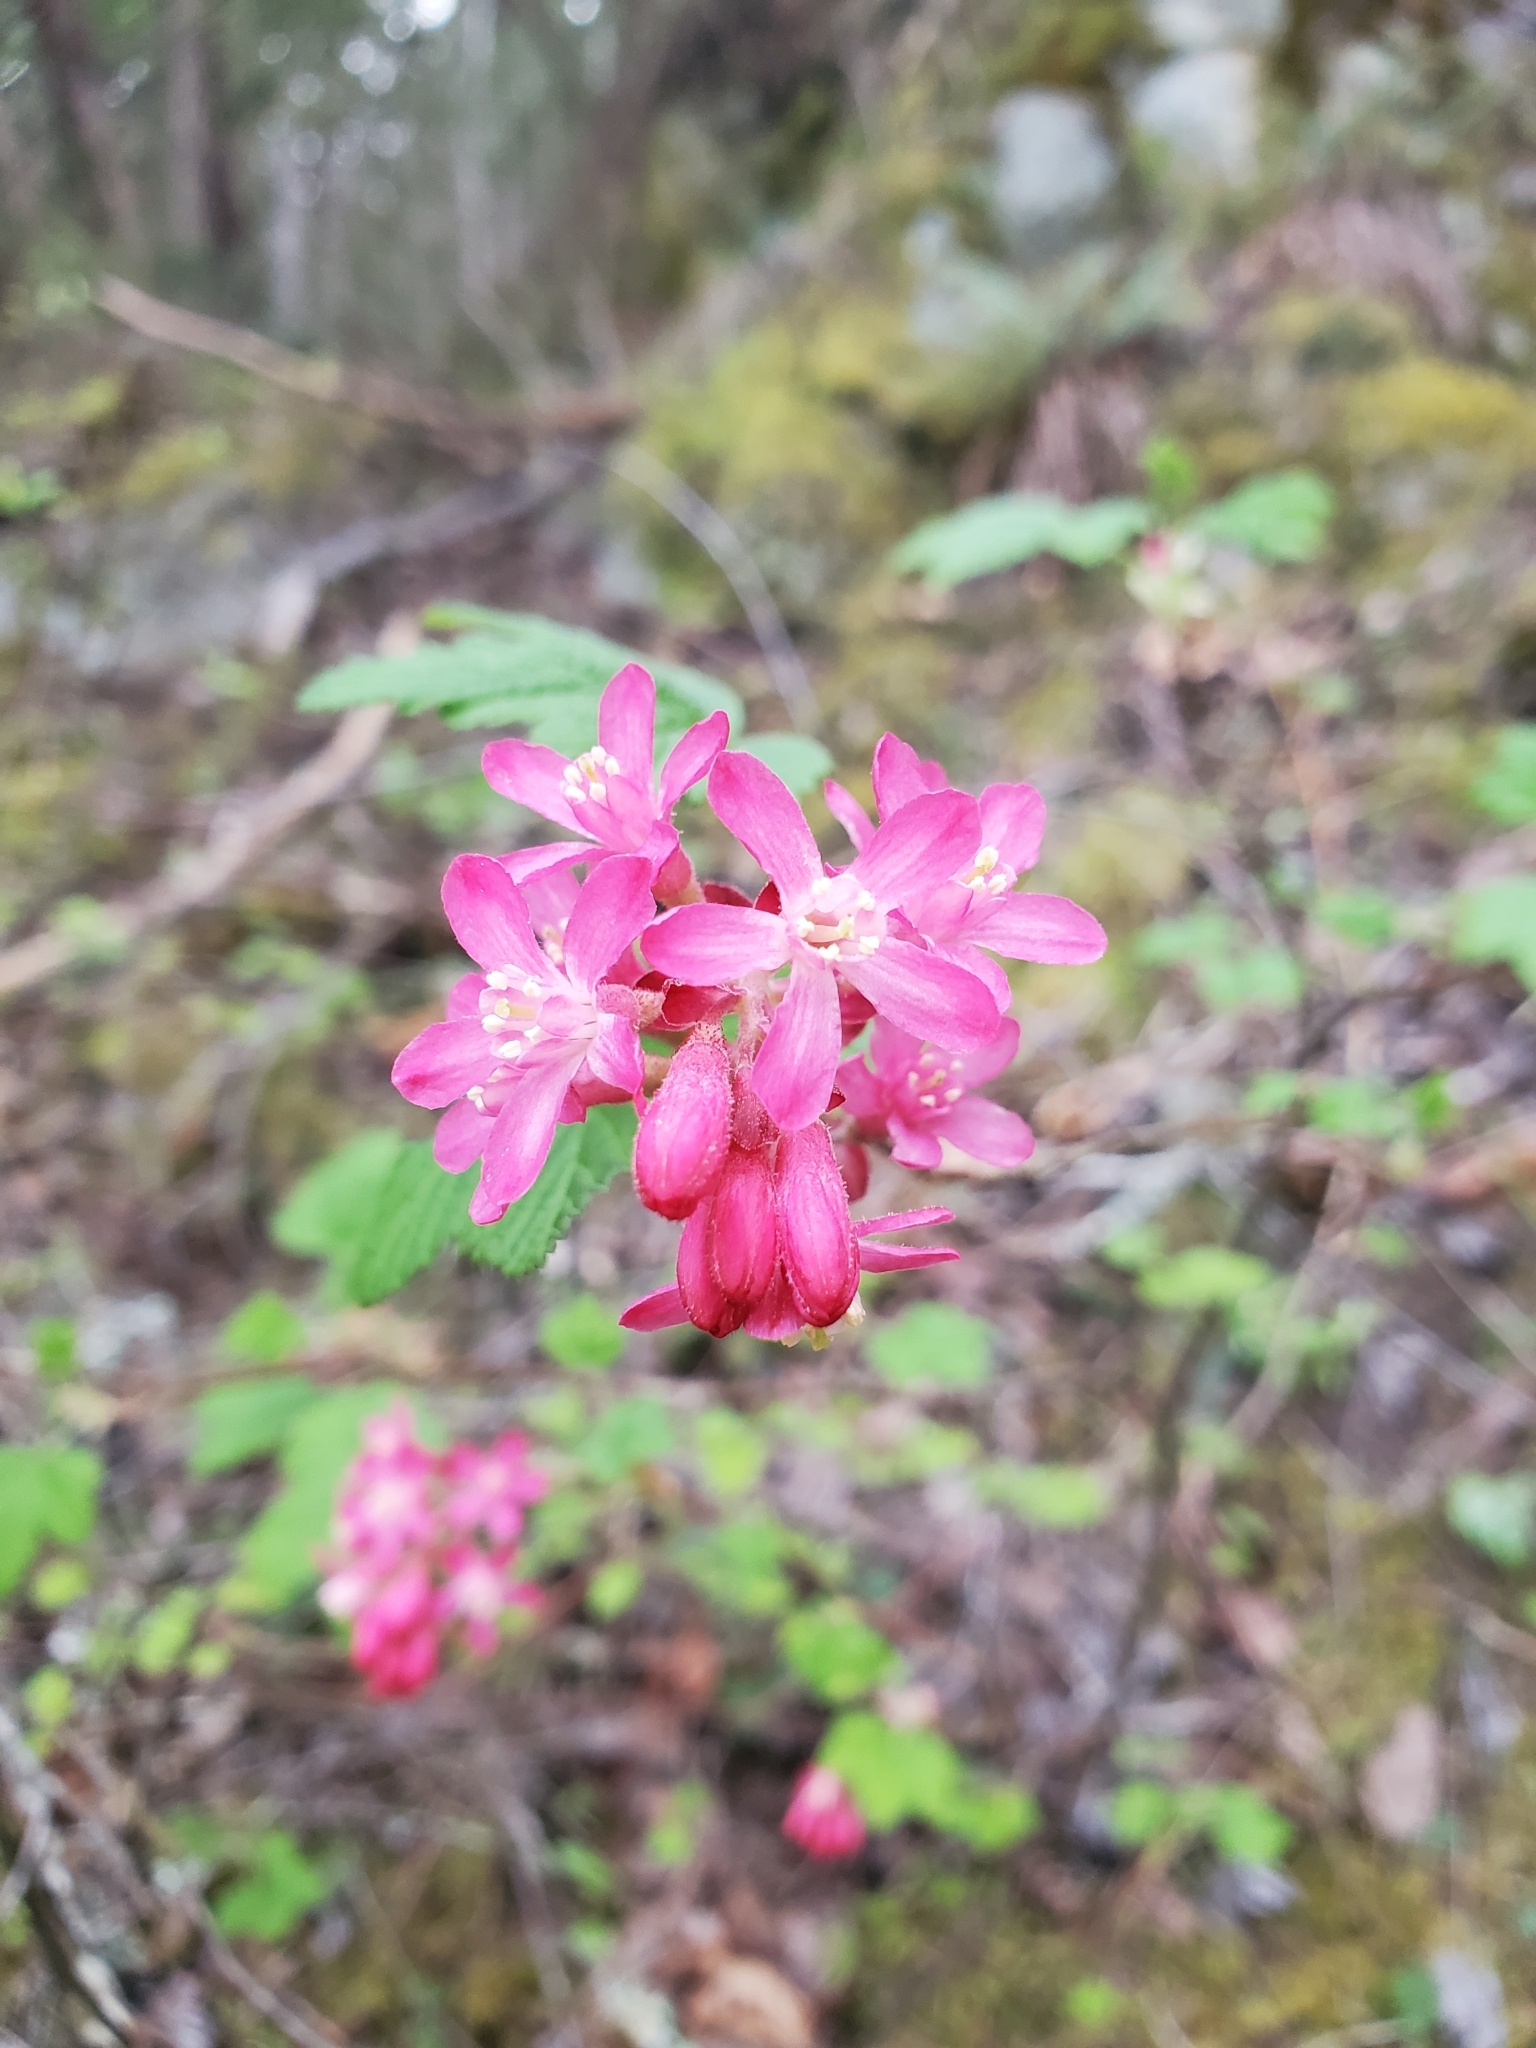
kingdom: Plantae
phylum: Tracheophyta
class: Magnoliopsida
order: Saxifragales
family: Grossulariaceae
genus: Ribes
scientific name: Ribes sanguineum
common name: Flowering currant
